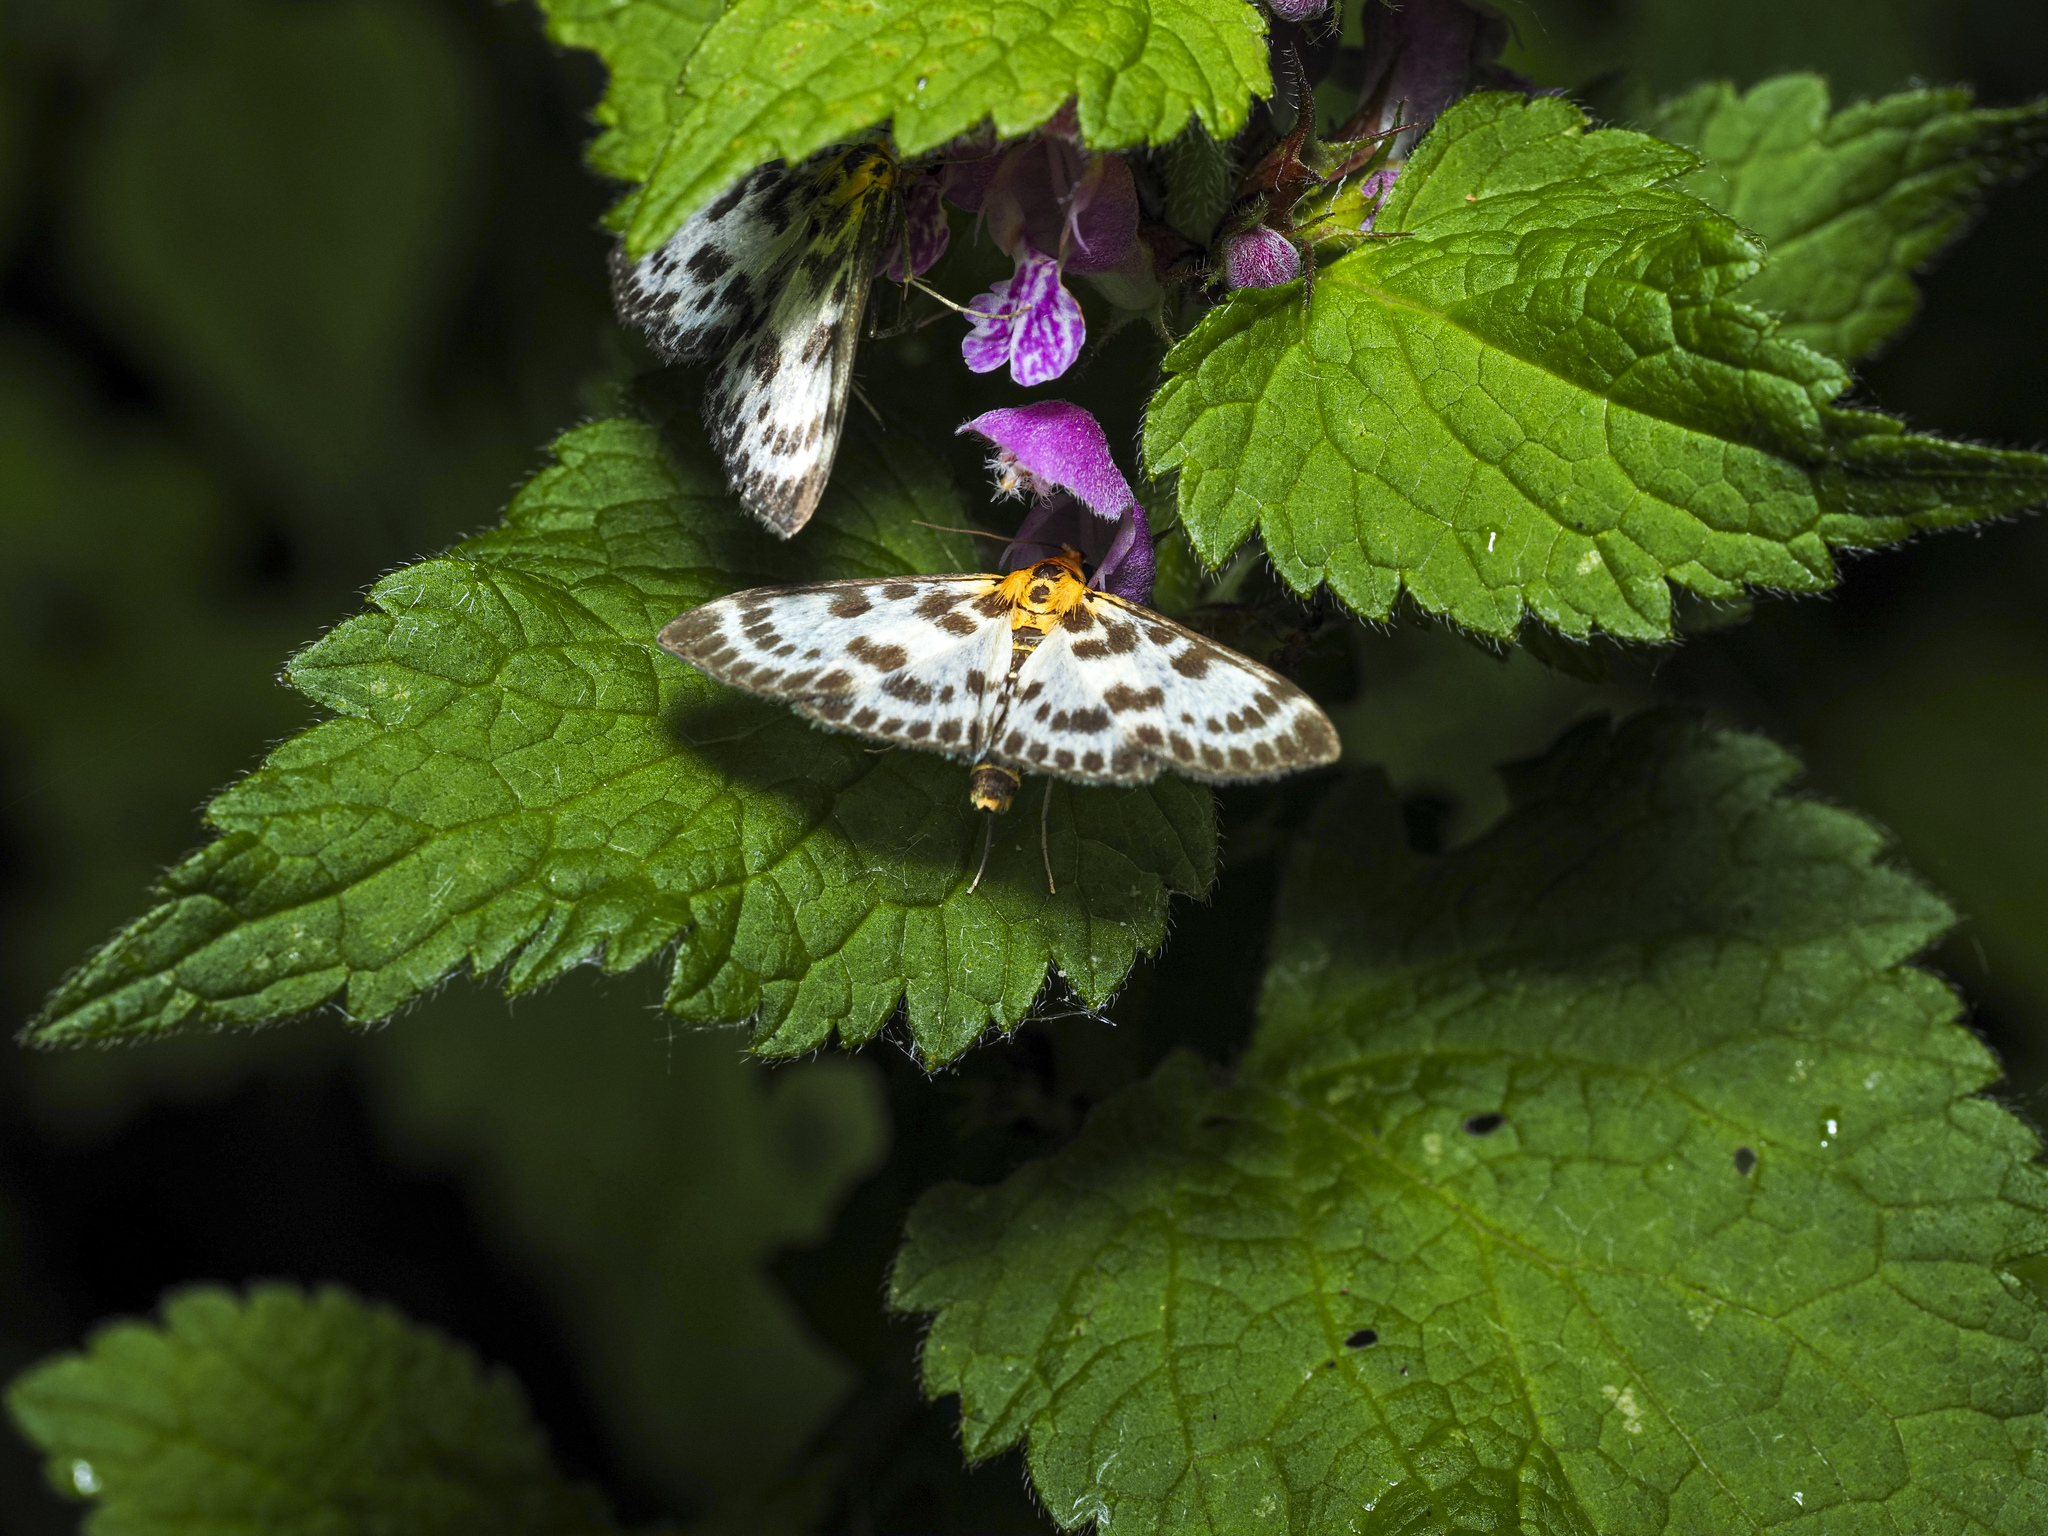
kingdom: Animalia
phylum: Arthropoda
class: Insecta
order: Lepidoptera
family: Crambidae
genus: Anania
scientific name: Anania hortulata
